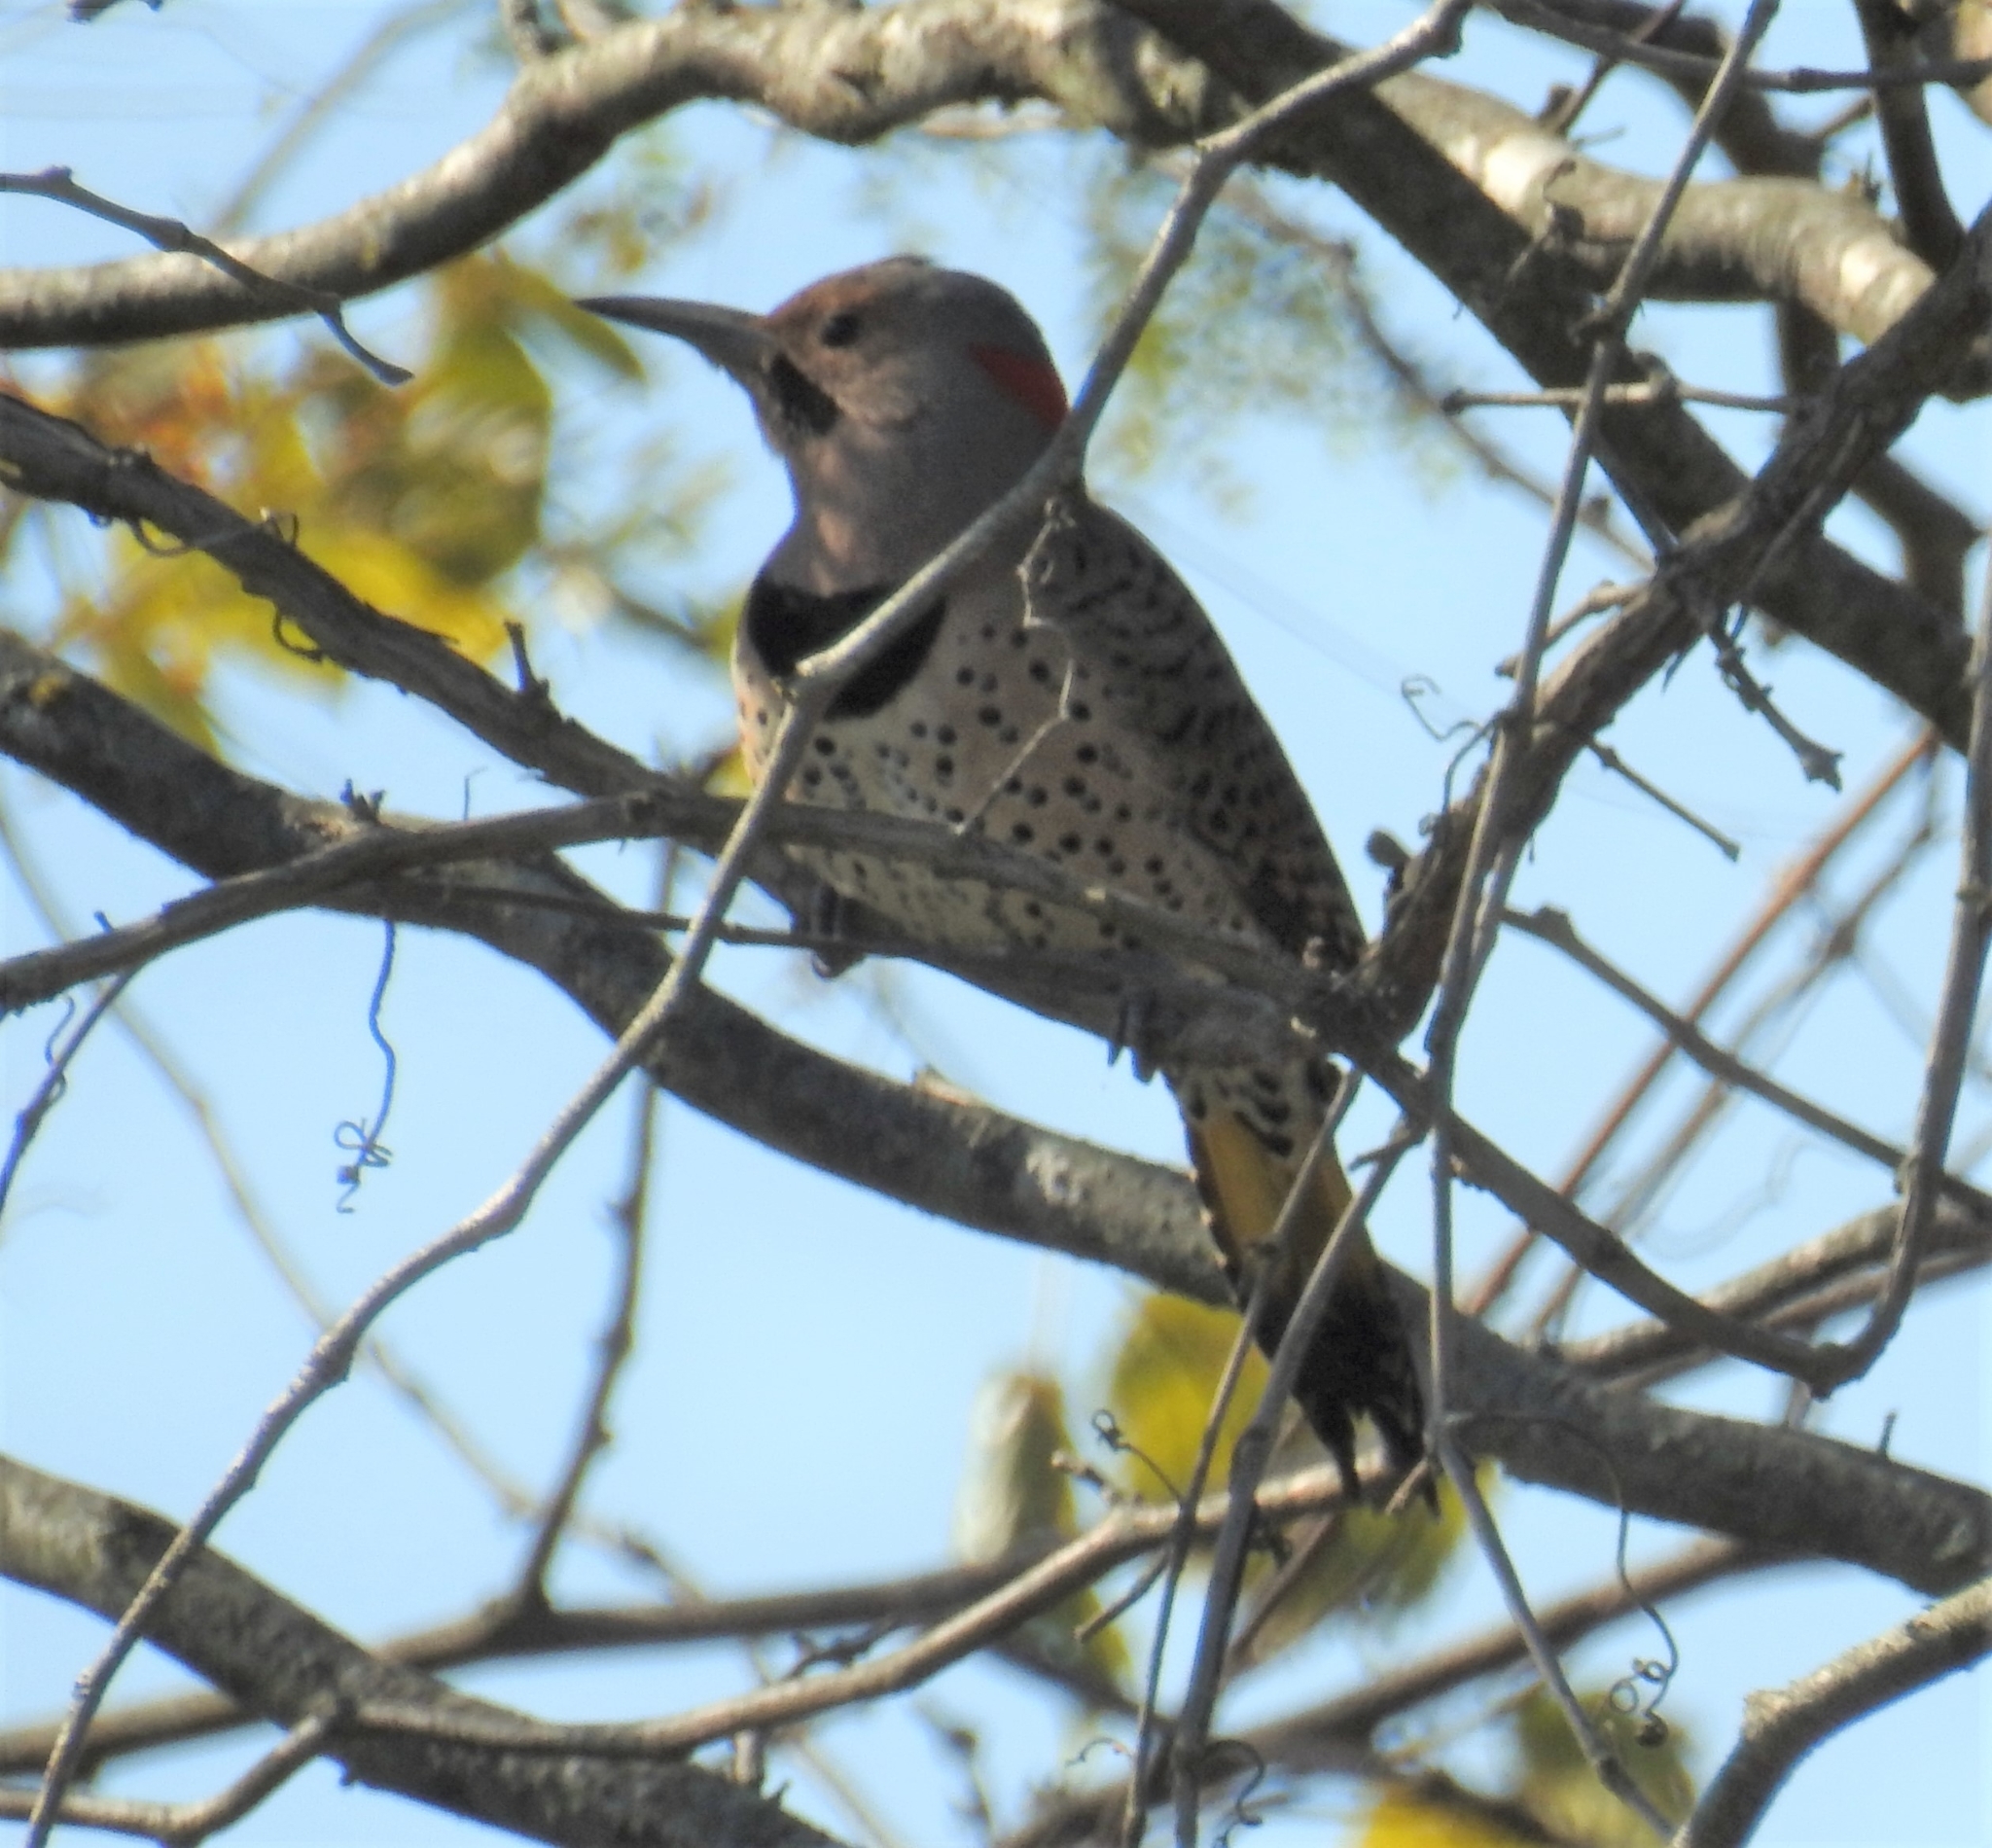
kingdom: Animalia
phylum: Chordata
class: Aves
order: Piciformes
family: Picidae
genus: Colaptes
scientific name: Colaptes auratus
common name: Northern flicker
